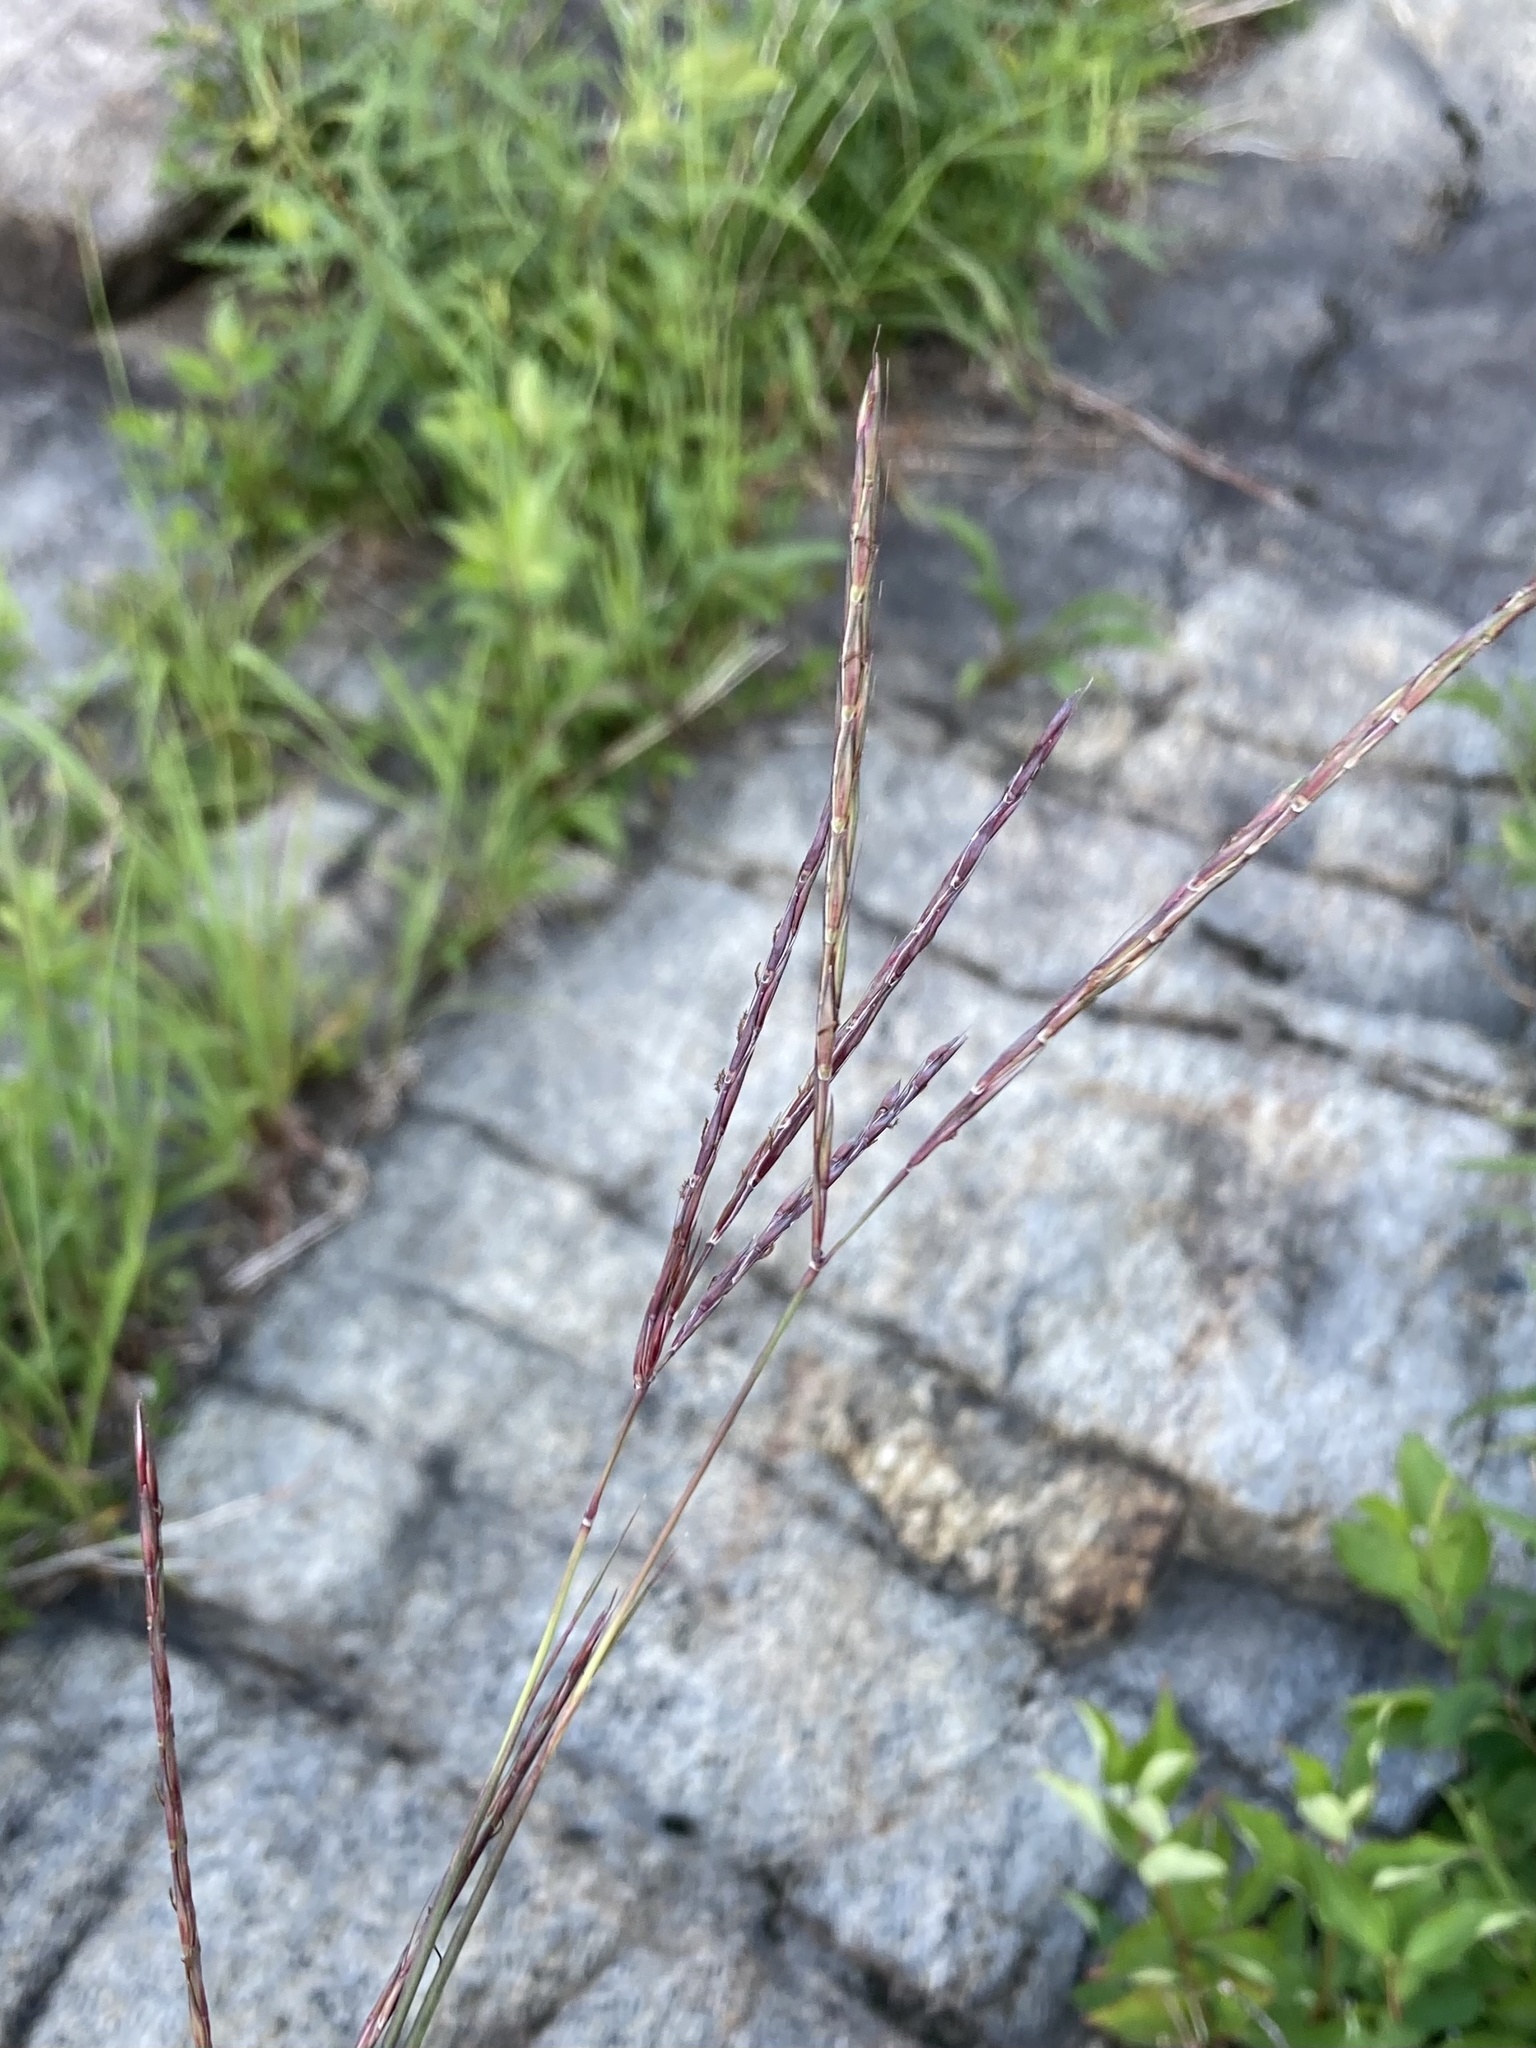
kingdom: Plantae
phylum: Tracheophyta
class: Liliopsida
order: Poales
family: Poaceae
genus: Andropogon
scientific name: Andropogon gerardi
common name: Big bluestem
